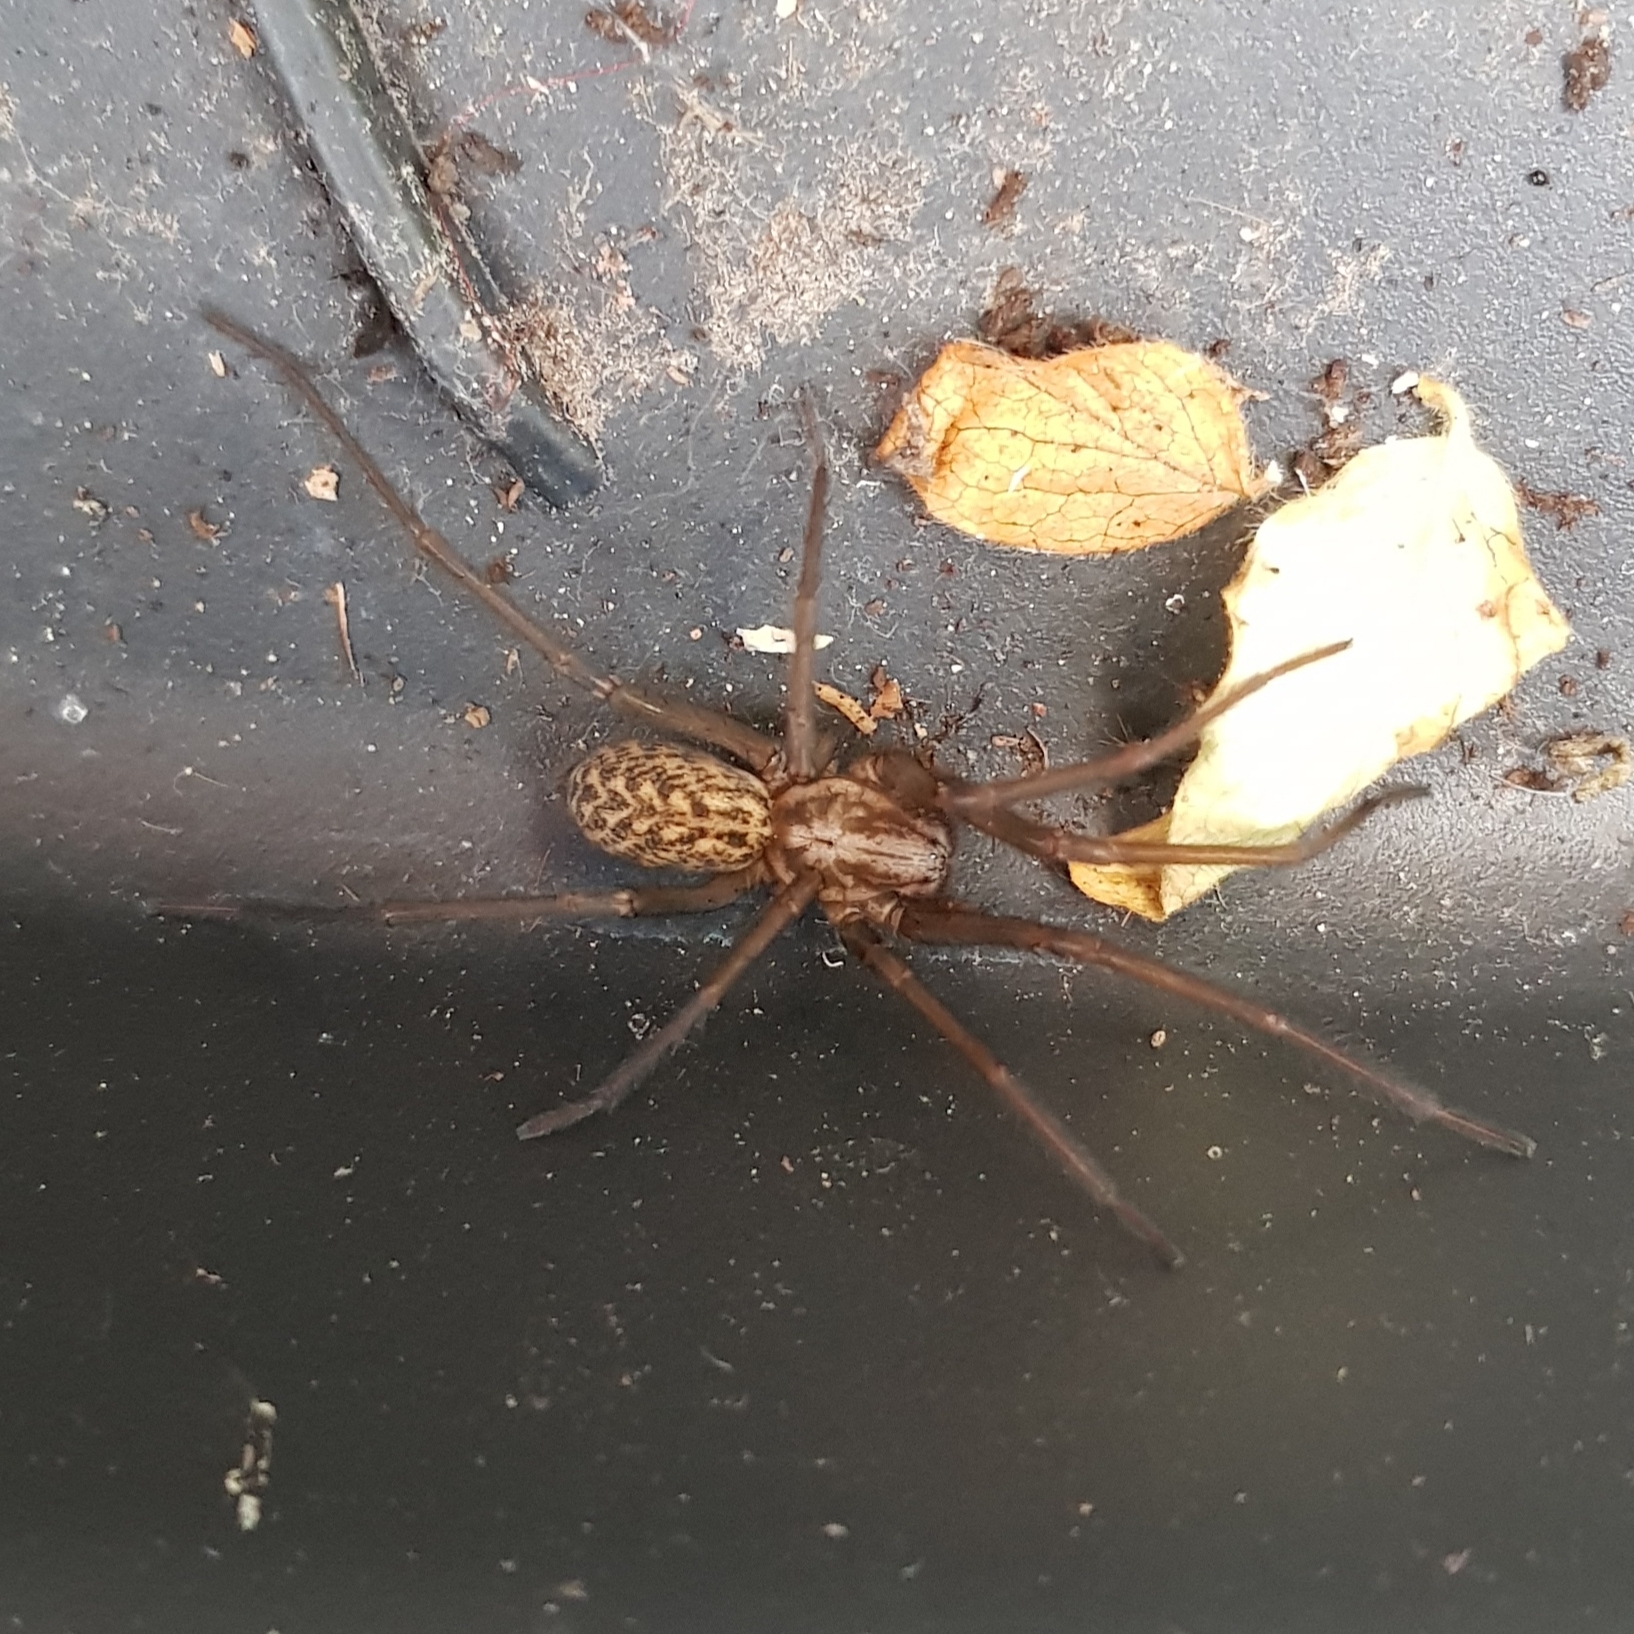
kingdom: Animalia
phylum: Arthropoda
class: Arachnida
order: Araneae
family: Agelenidae
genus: Eratigena
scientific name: Eratigena atrica
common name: Giant house spider
